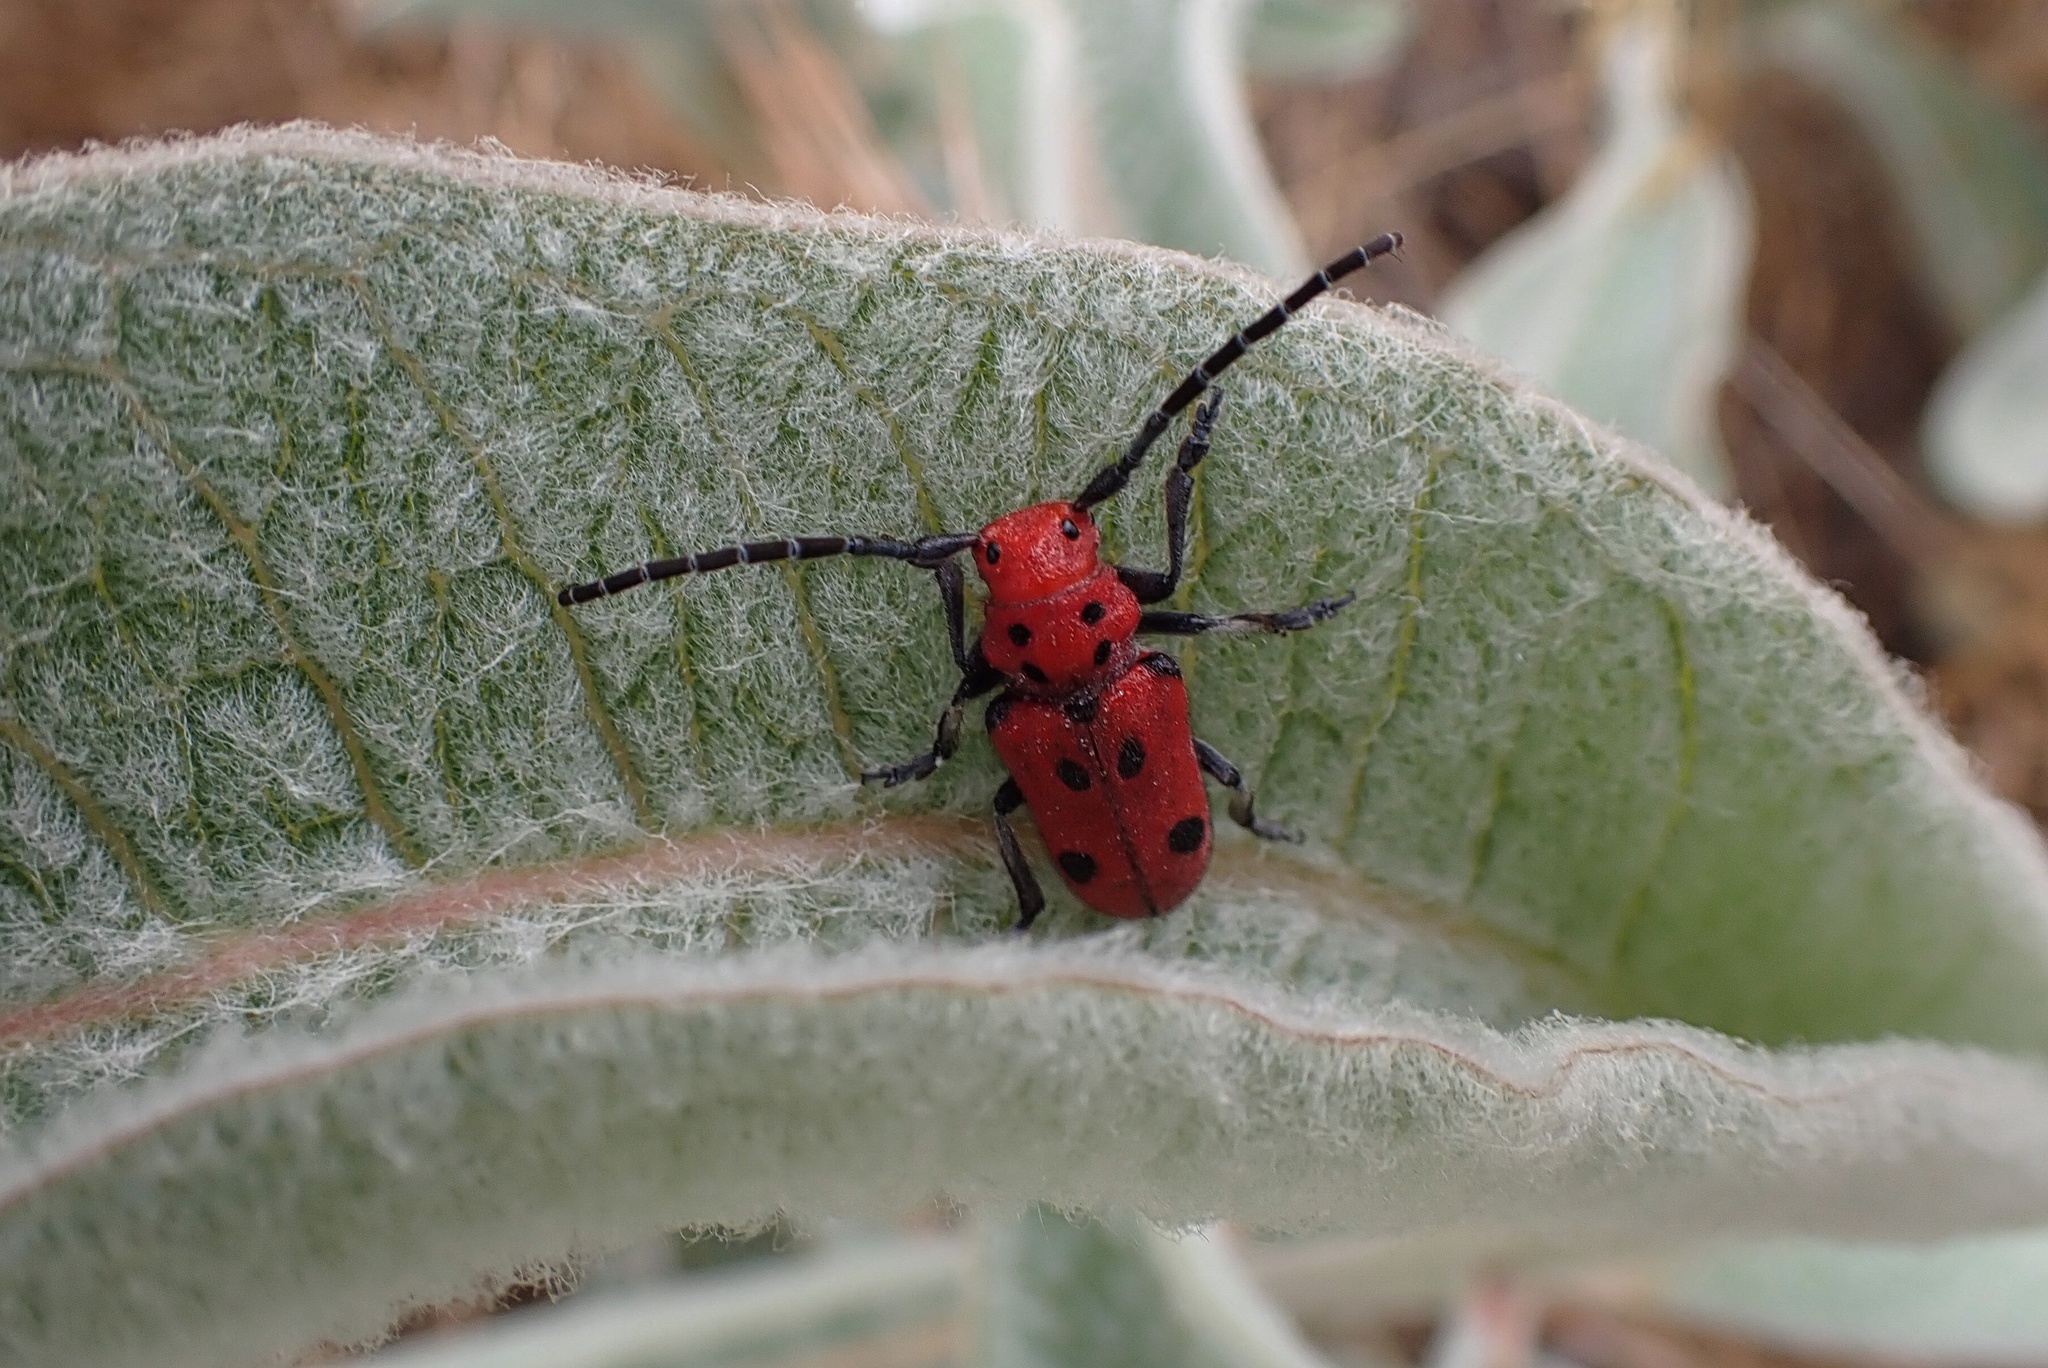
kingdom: Animalia
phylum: Arthropoda
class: Insecta
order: Coleoptera
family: Cerambycidae
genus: Tetraopes
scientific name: Tetraopes basalis
